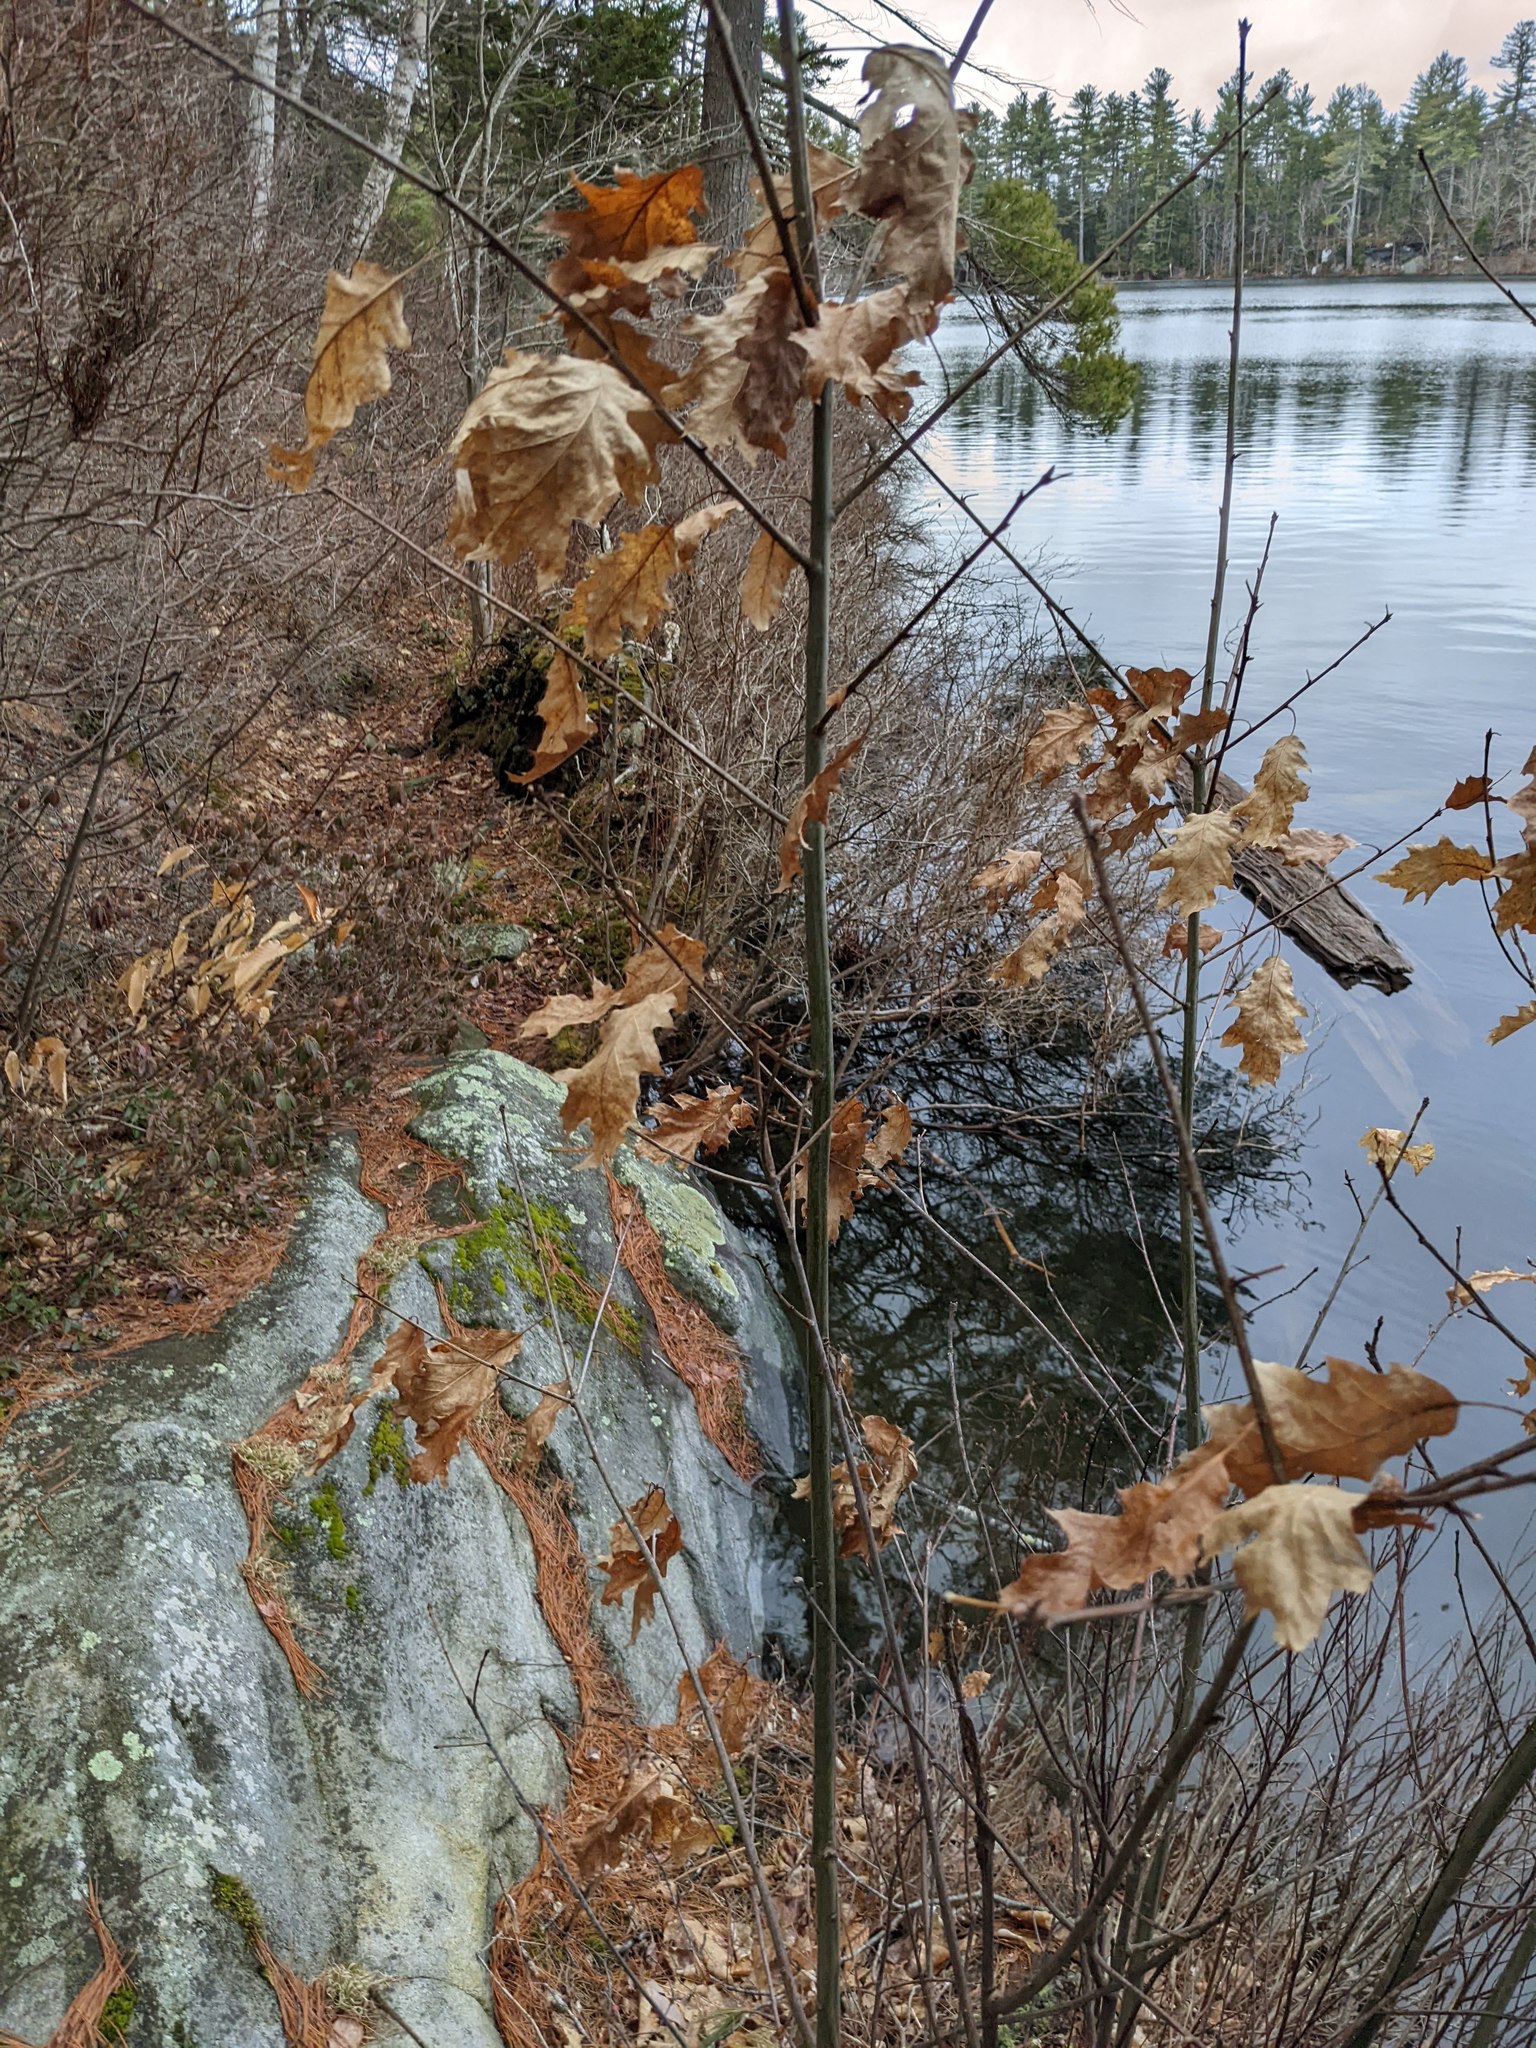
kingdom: Plantae
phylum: Tracheophyta
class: Magnoliopsida
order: Fagales
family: Fagaceae
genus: Quercus
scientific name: Quercus rubra
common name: Red oak
